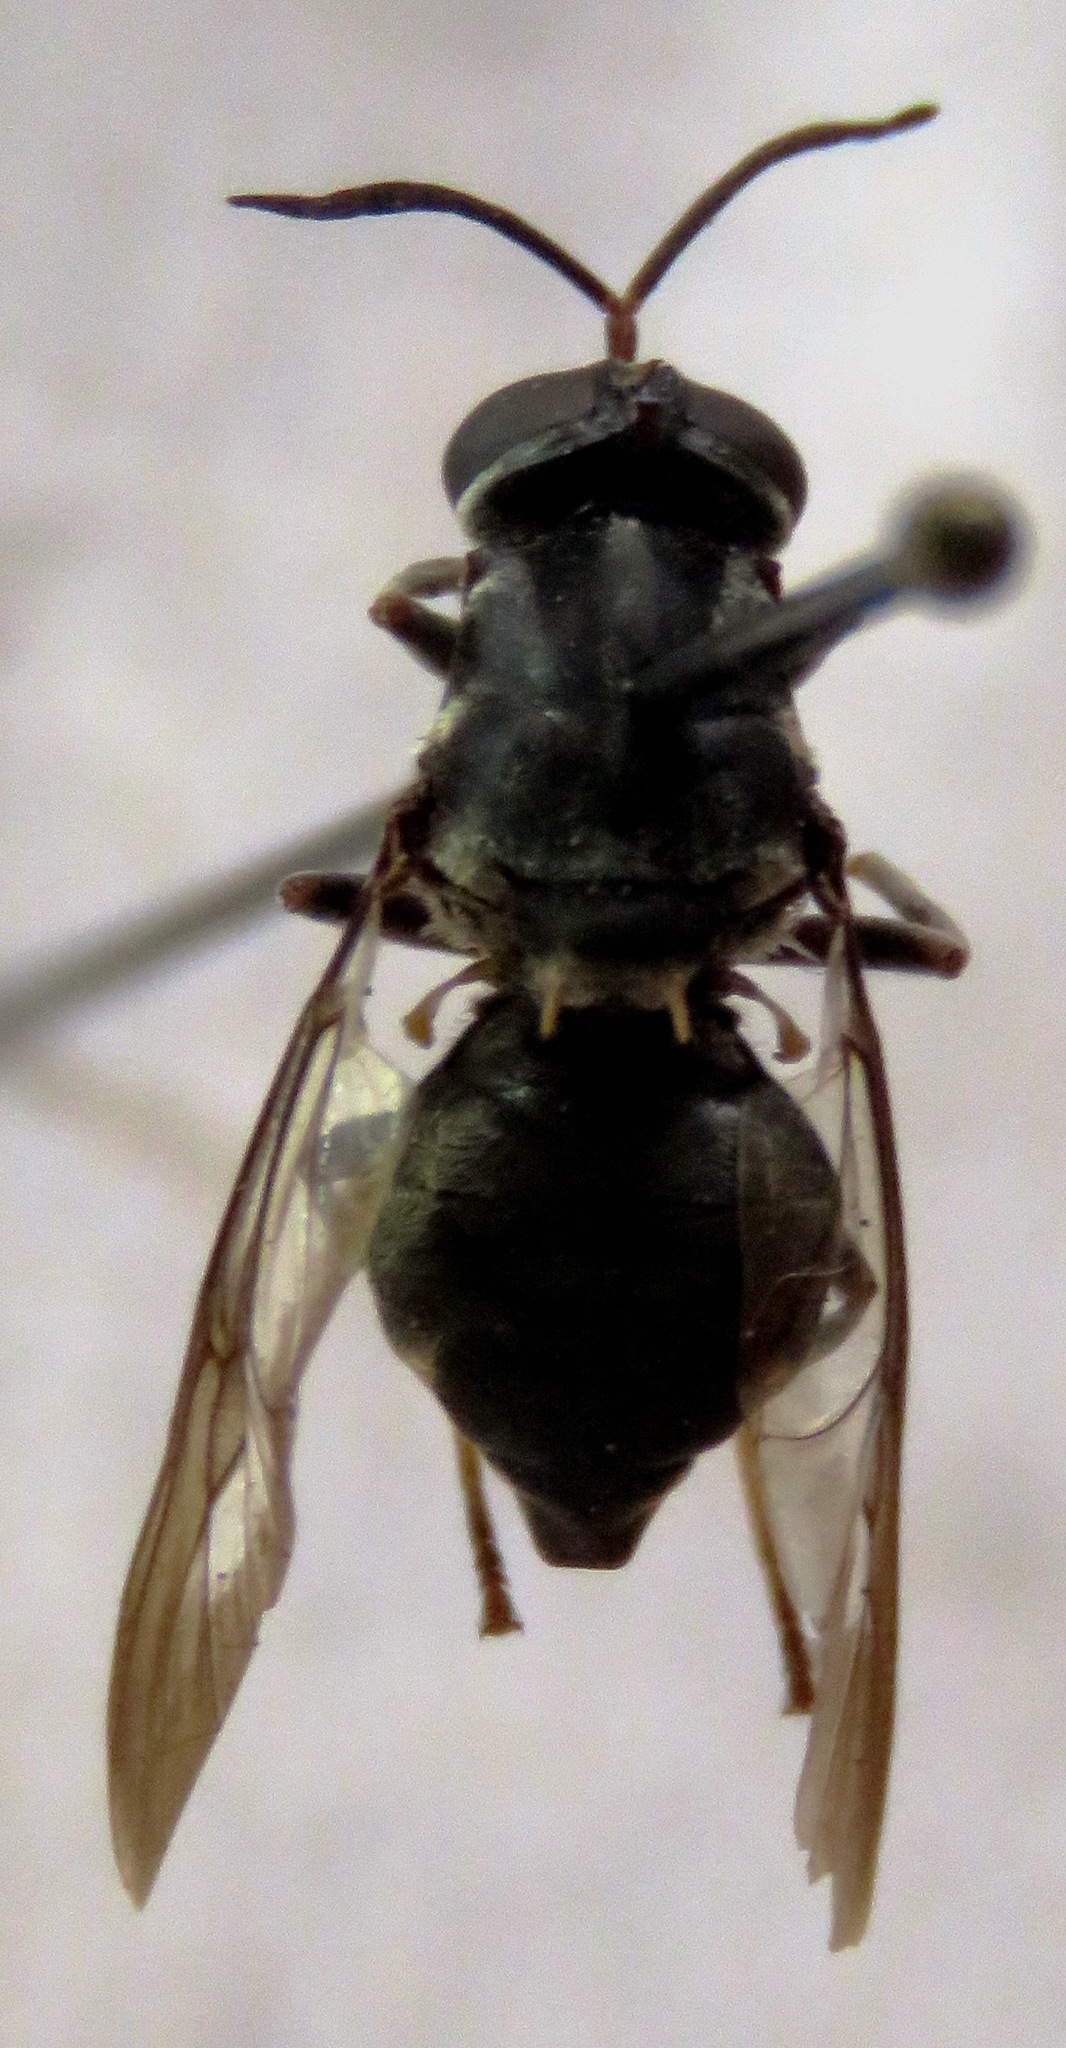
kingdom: Animalia
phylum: Arthropoda
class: Insecta
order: Diptera
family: Stratiomyidae
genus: Cyphomyia
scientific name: Cyphomyia albitarsis
